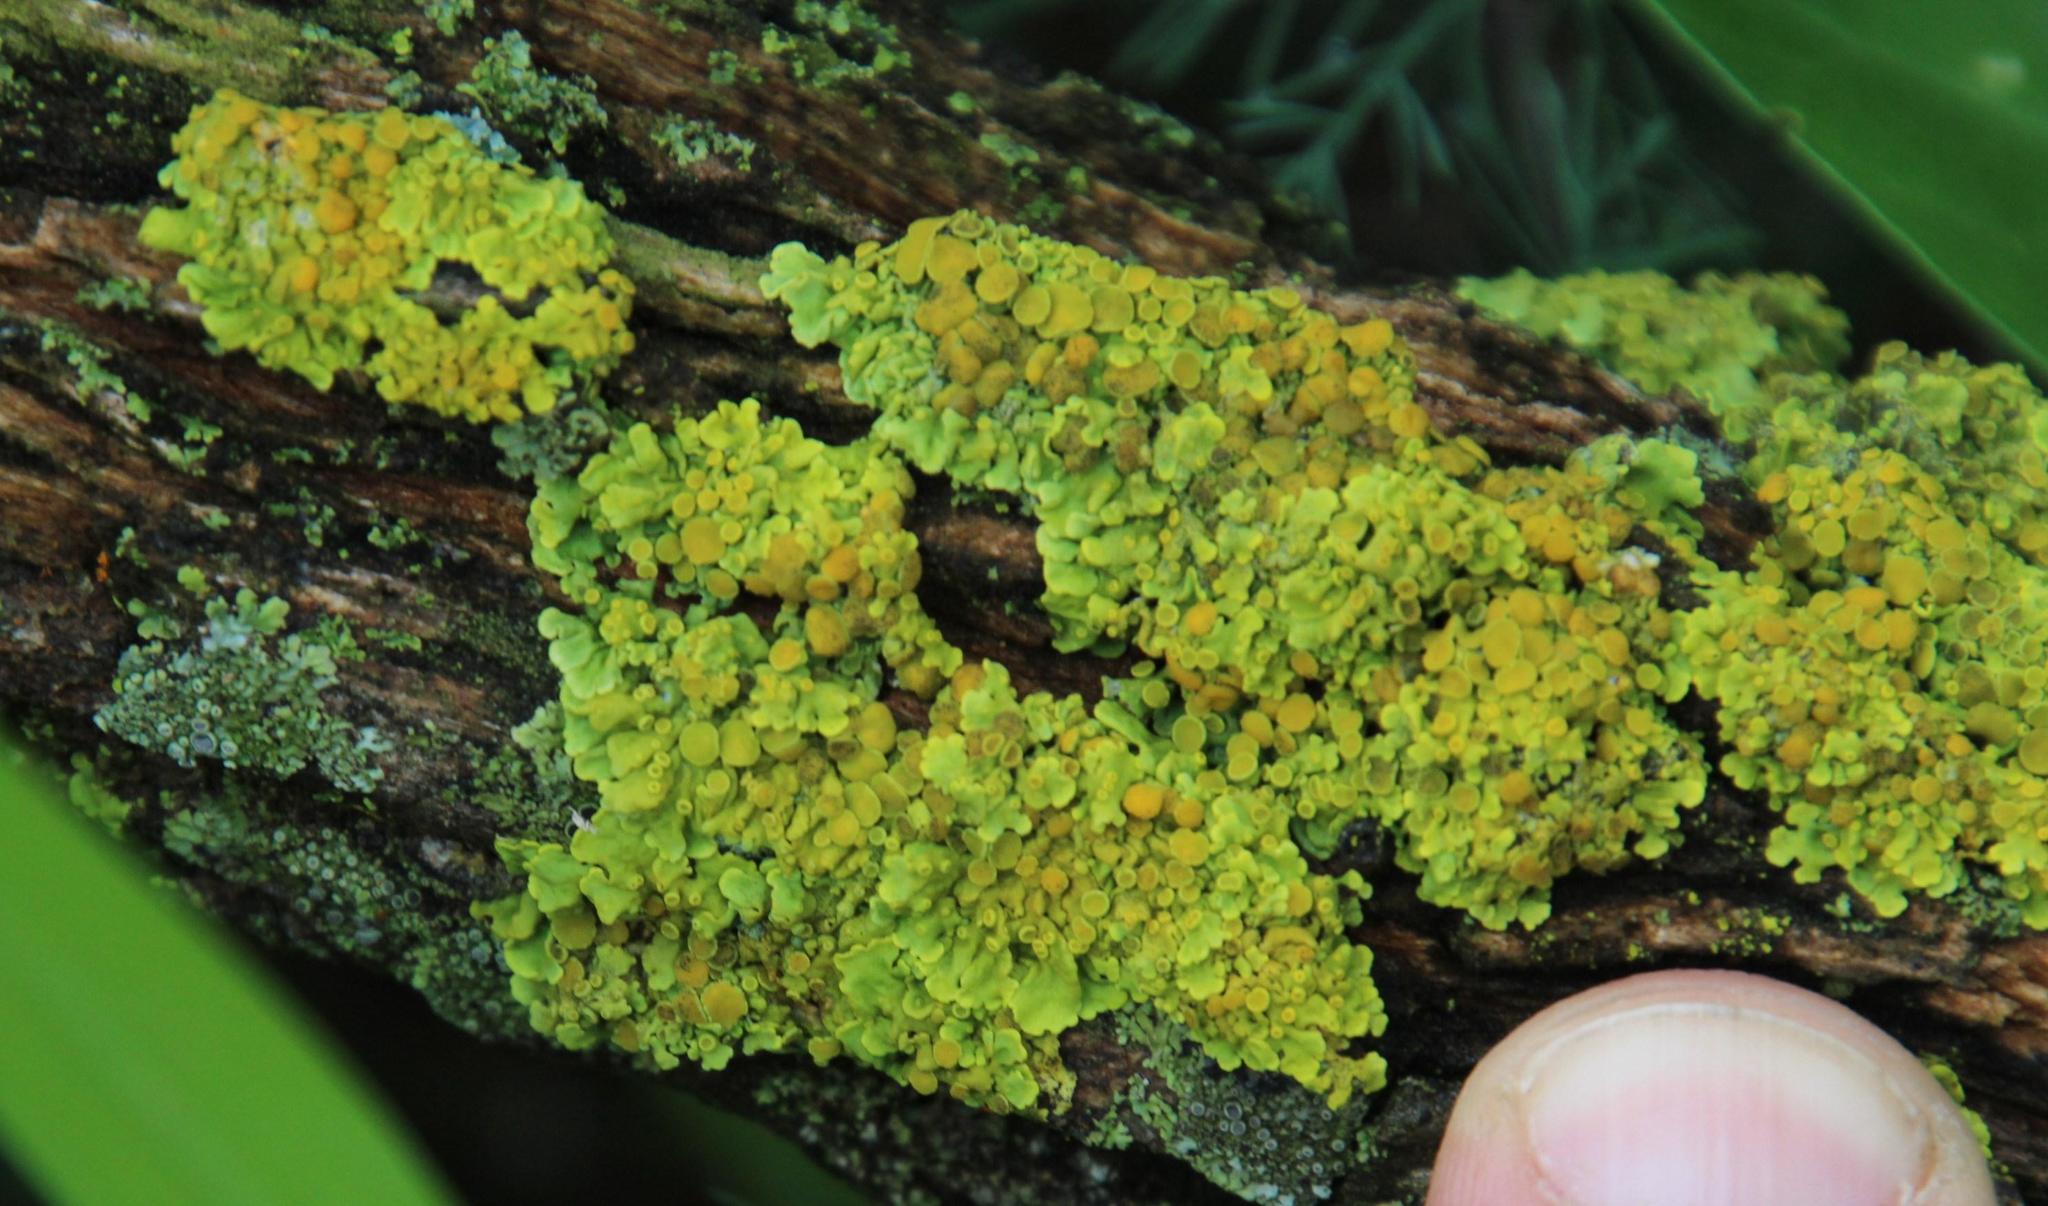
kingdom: Fungi
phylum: Ascomycota
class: Lecanoromycetes
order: Teloschistales
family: Teloschistaceae
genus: Xanthoria
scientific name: Xanthoria parietina
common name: Common orange lichen
